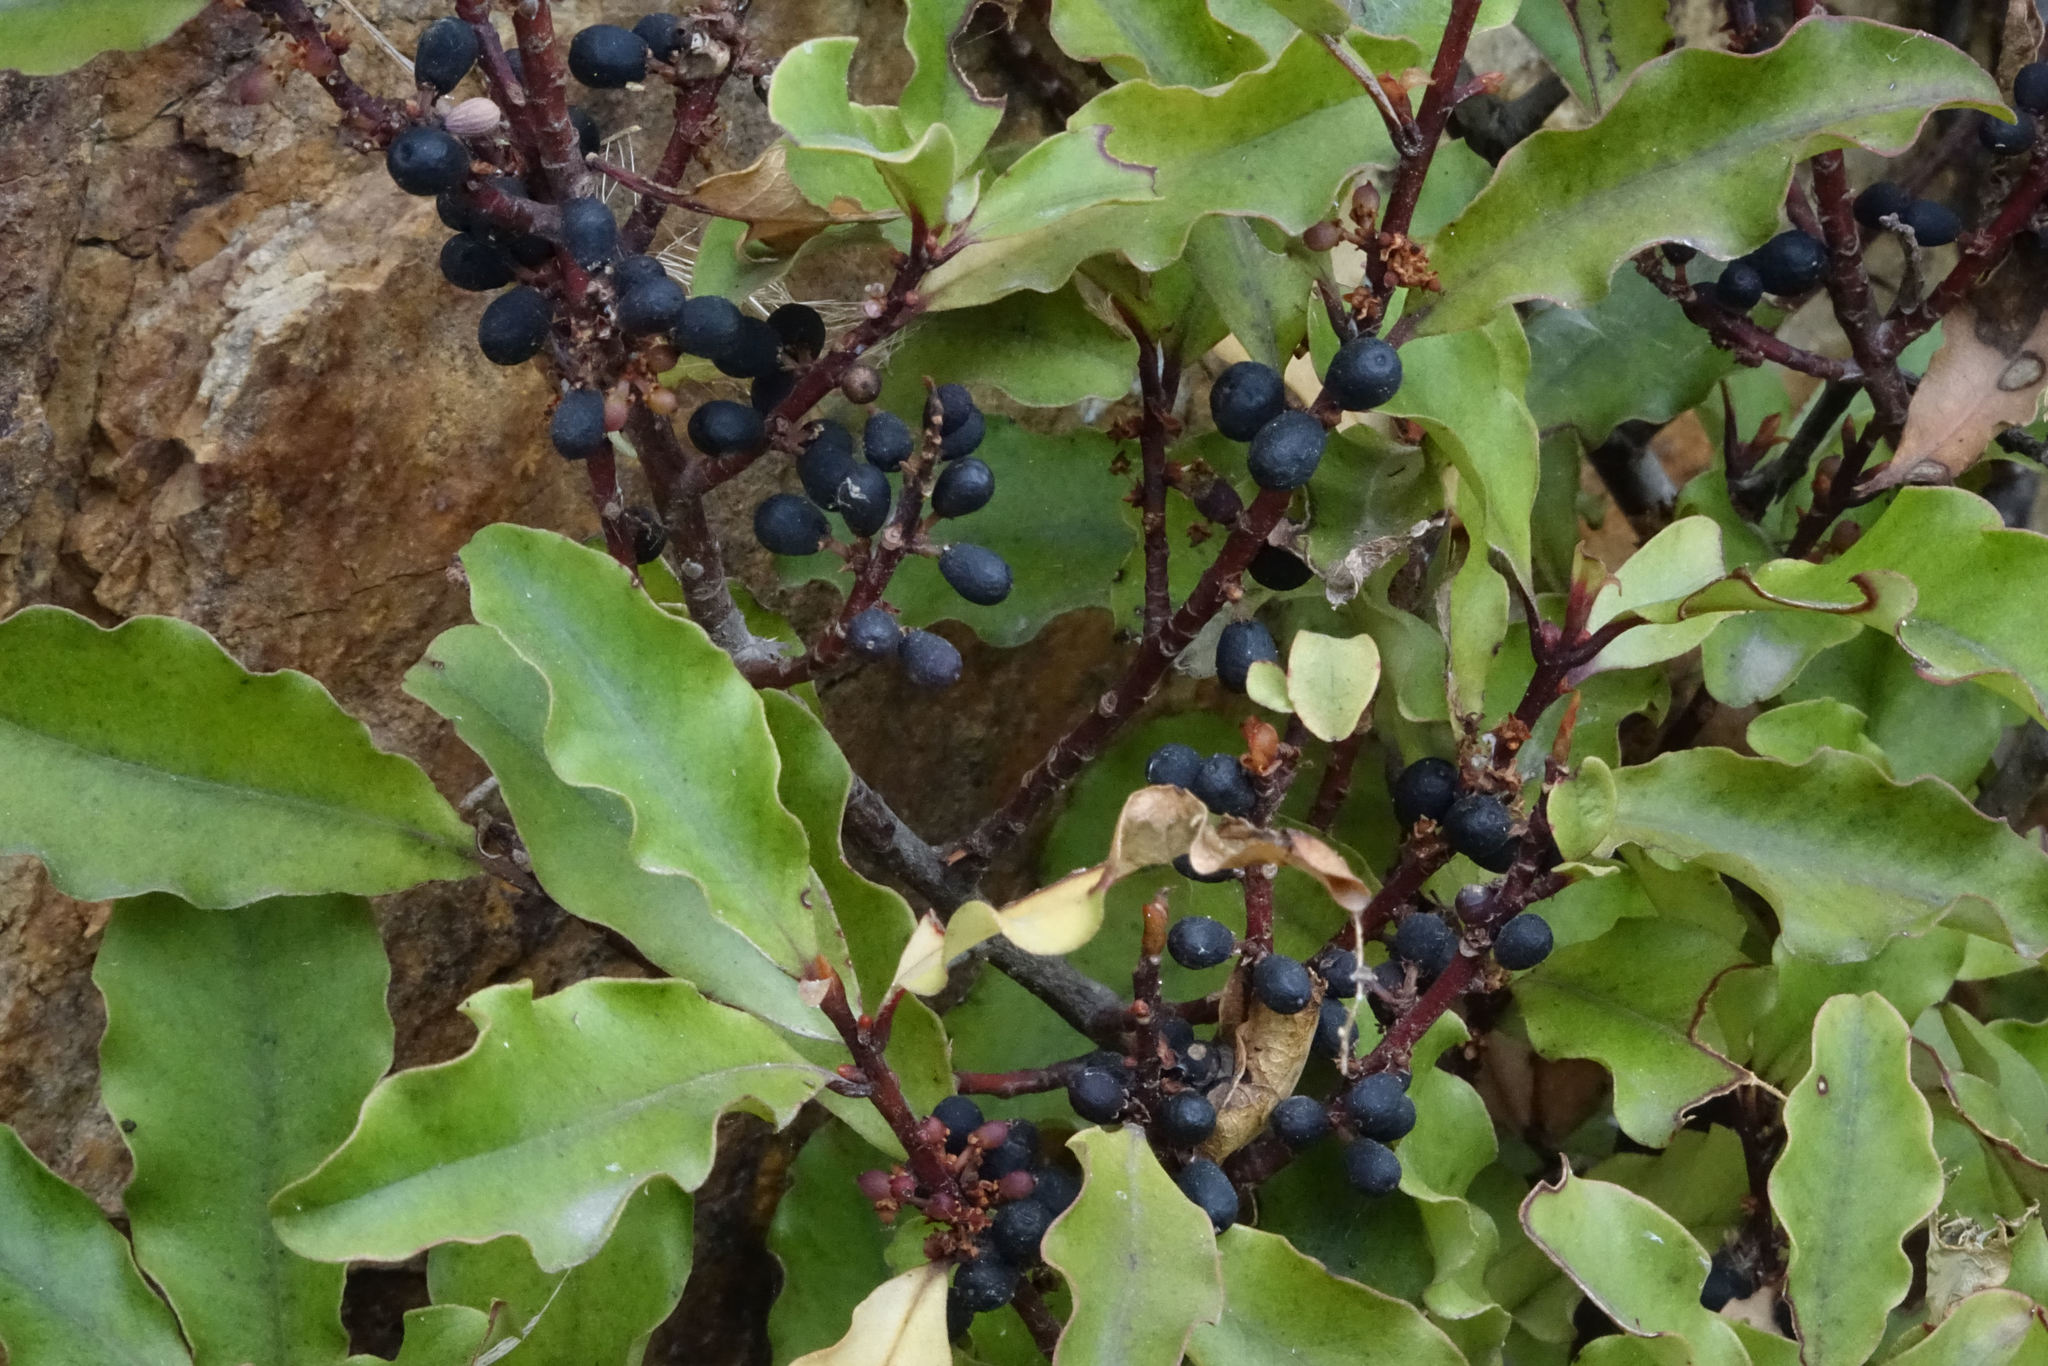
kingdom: Plantae
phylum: Tracheophyta
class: Magnoliopsida
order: Ericales
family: Primulaceae
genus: Myrsine
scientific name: Myrsine australis
